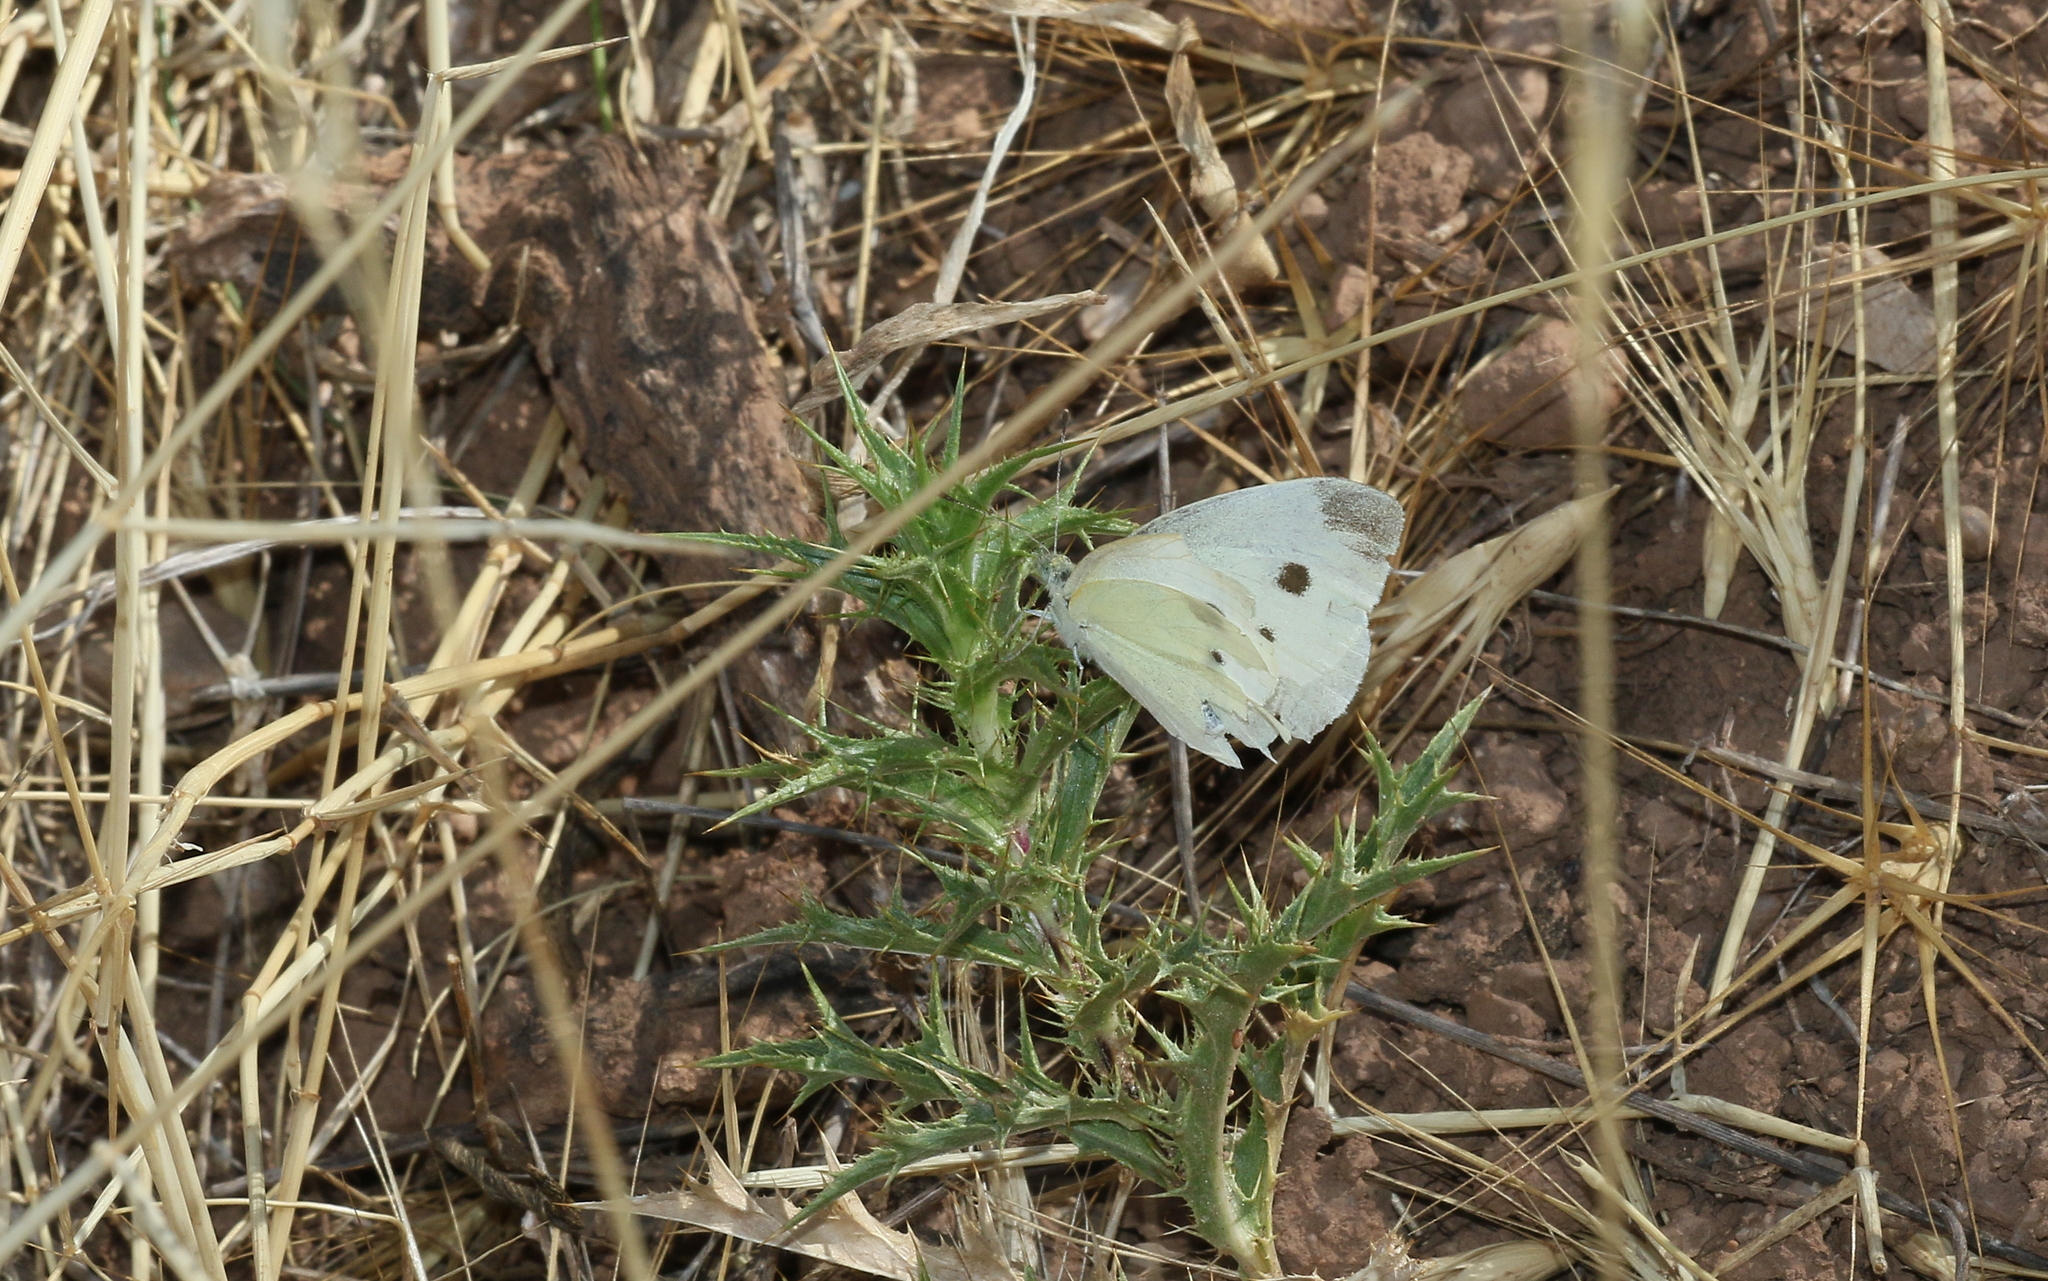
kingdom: Animalia
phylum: Arthropoda
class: Insecta
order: Lepidoptera
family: Pieridae
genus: Pieris
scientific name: Pieris ergane
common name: Mountain small white
